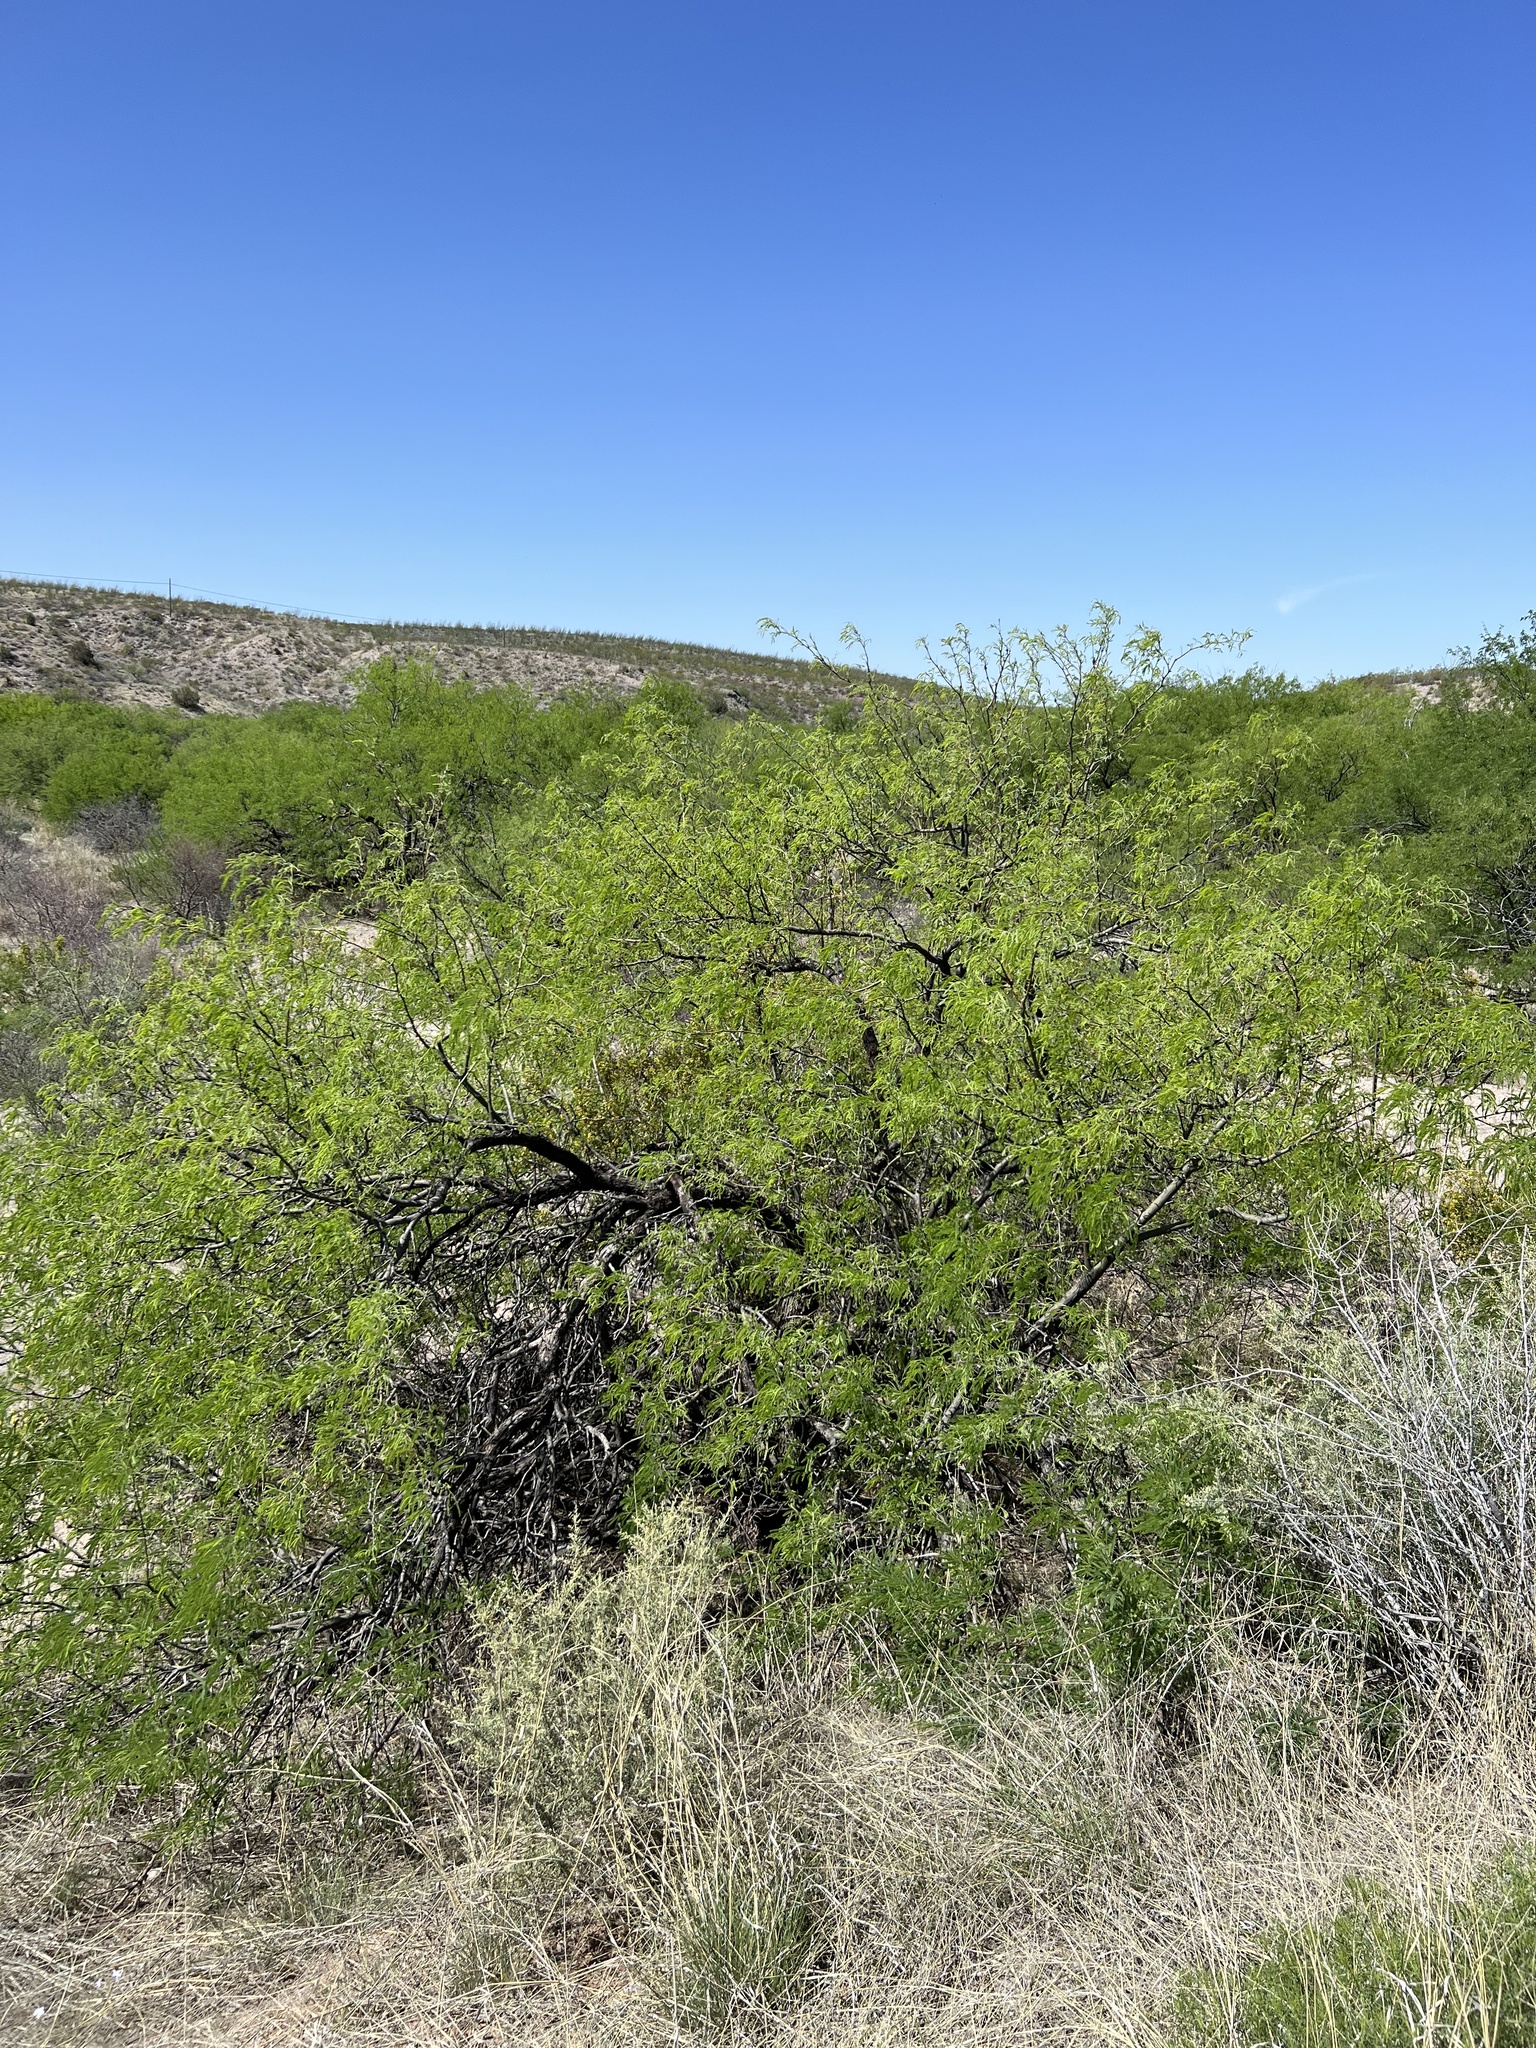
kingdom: Plantae
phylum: Tracheophyta
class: Magnoliopsida
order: Fabales
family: Fabaceae
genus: Prosopis
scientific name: Prosopis velutina
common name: Velvet mesquite
